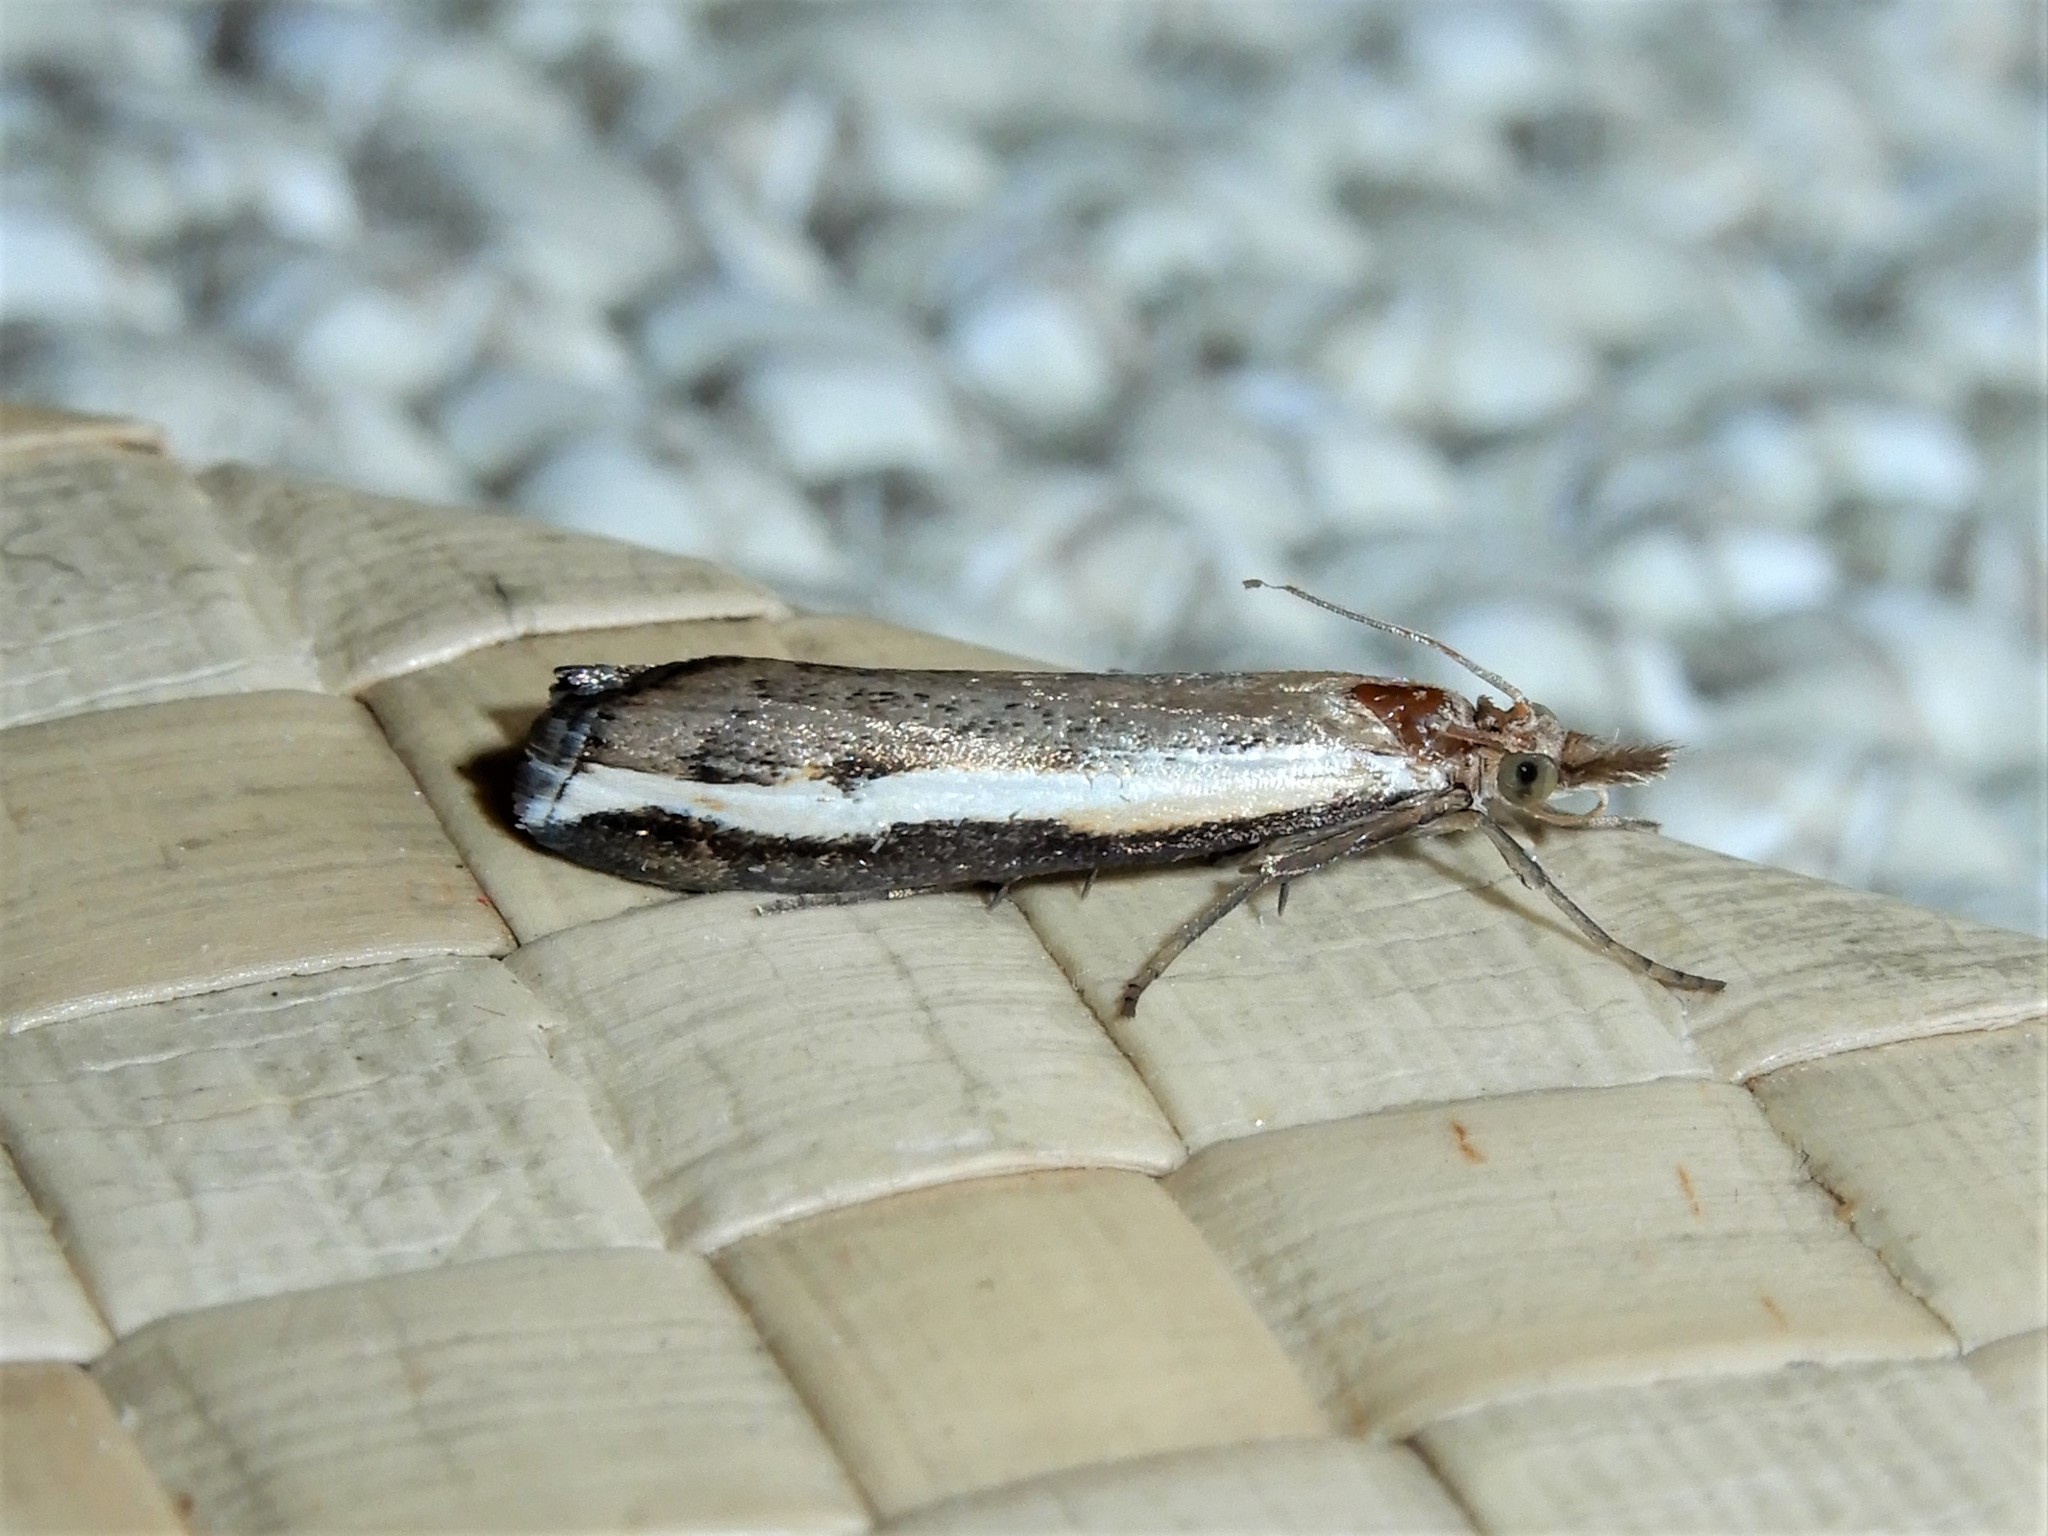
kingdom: Animalia
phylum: Arthropoda
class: Insecta
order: Lepidoptera
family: Crambidae
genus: Orocrambus
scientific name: Orocrambus flexuosellus
